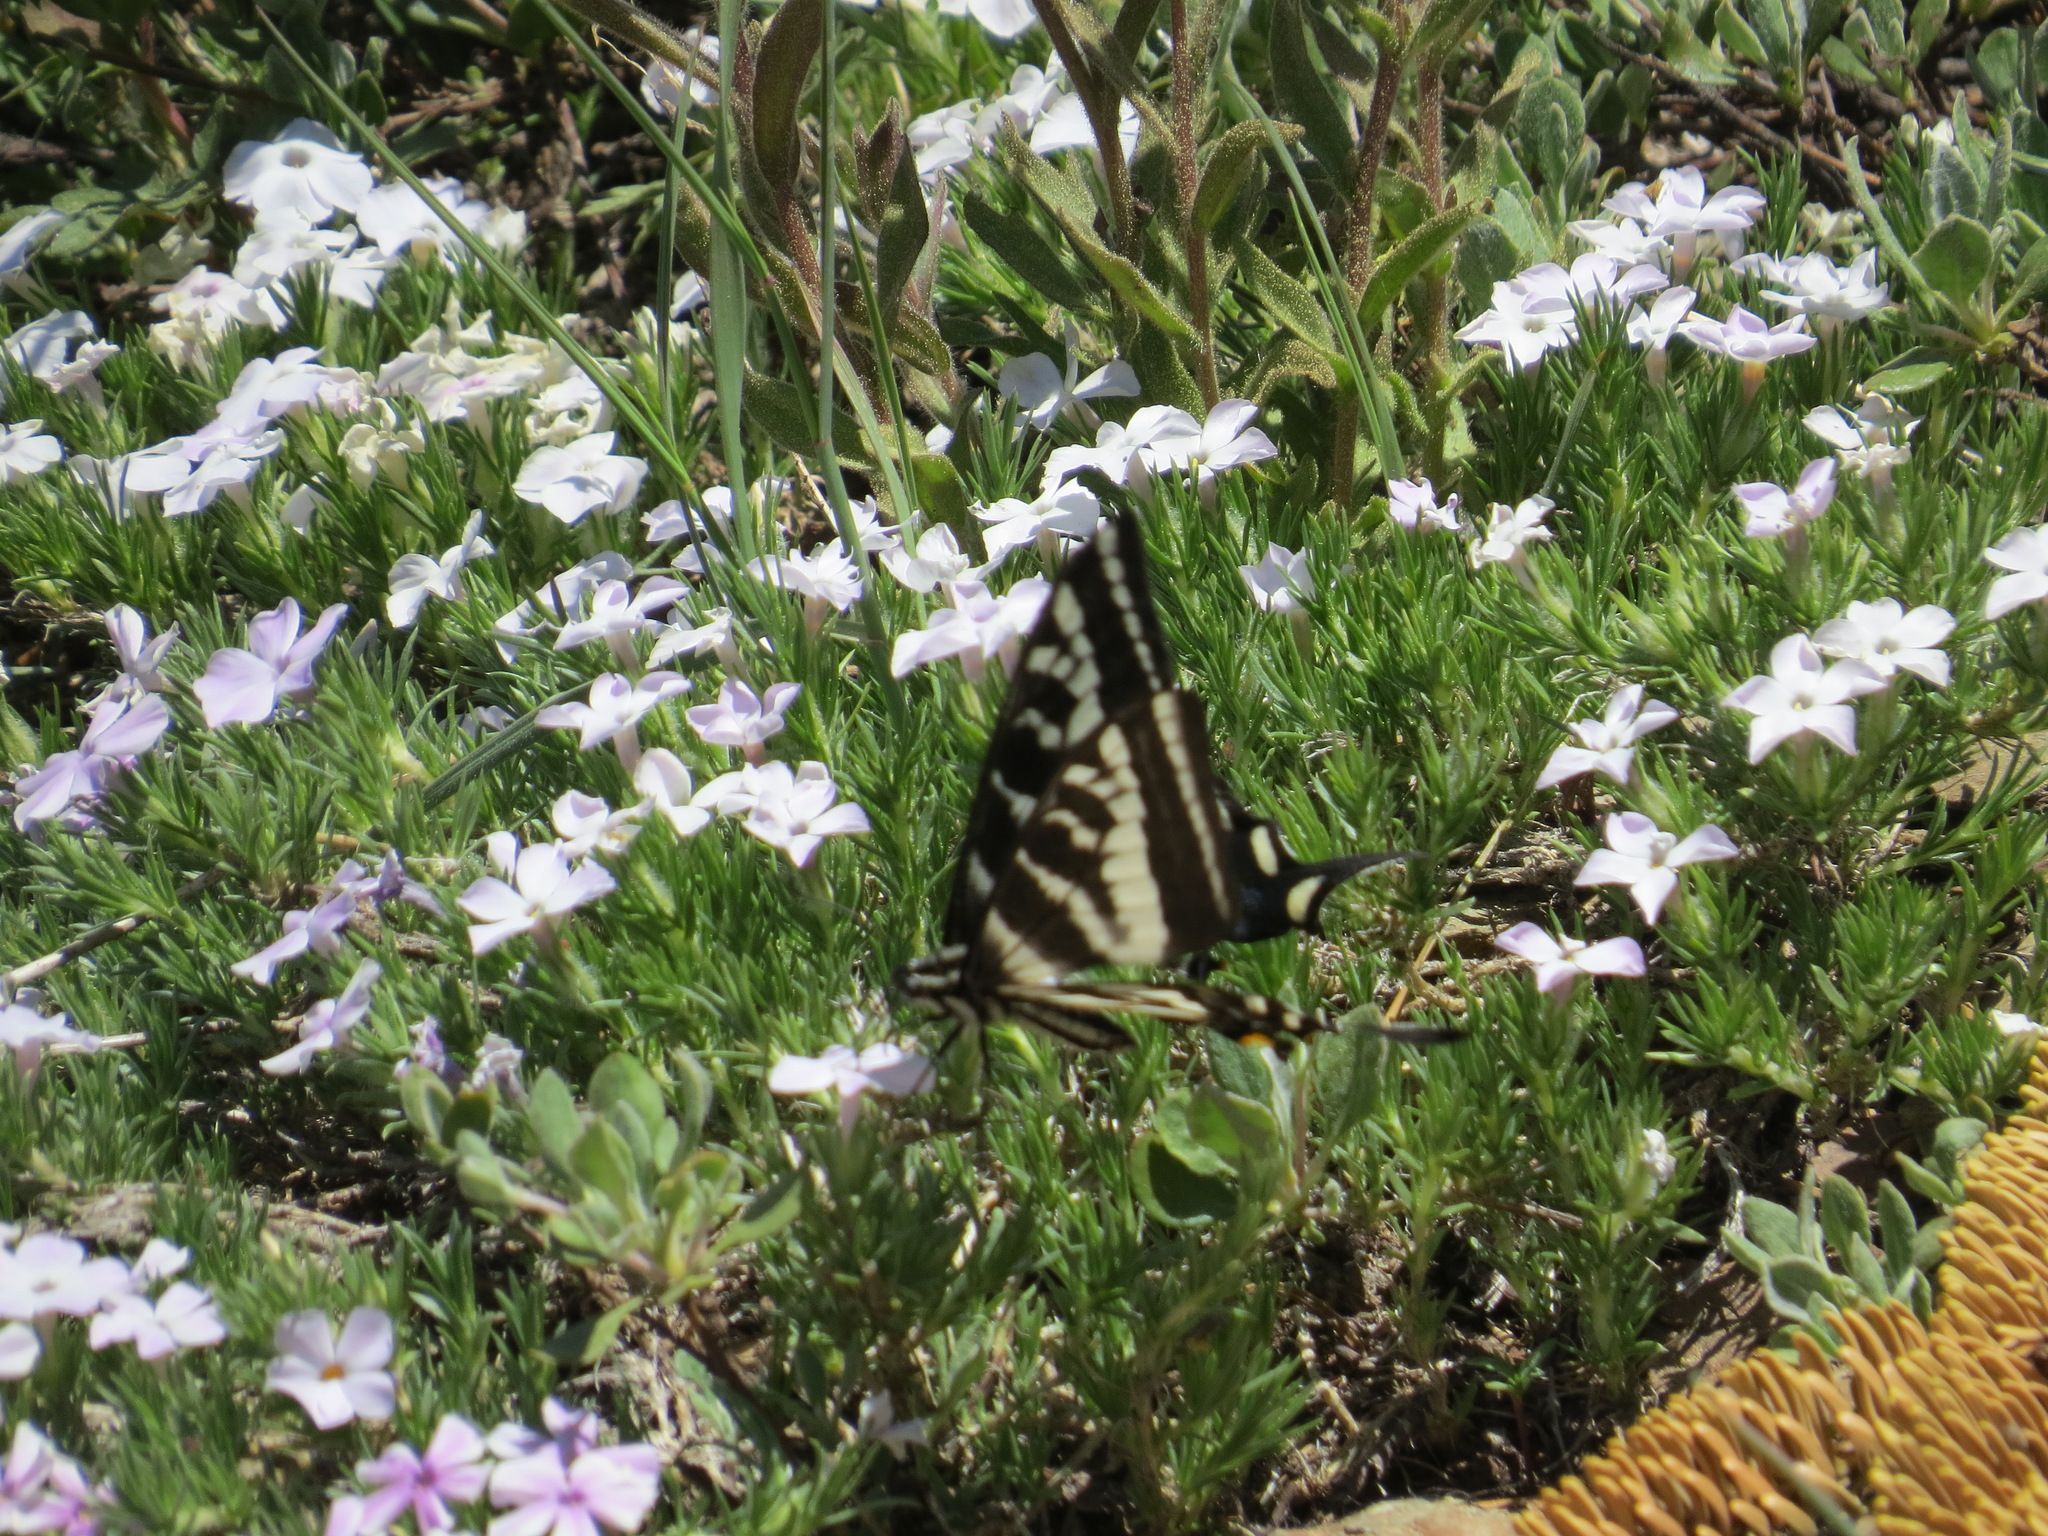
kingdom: Animalia
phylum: Arthropoda
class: Insecta
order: Lepidoptera
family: Papilionidae
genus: Papilio
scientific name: Papilio eurymedon
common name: Pale tiger swallowtail
